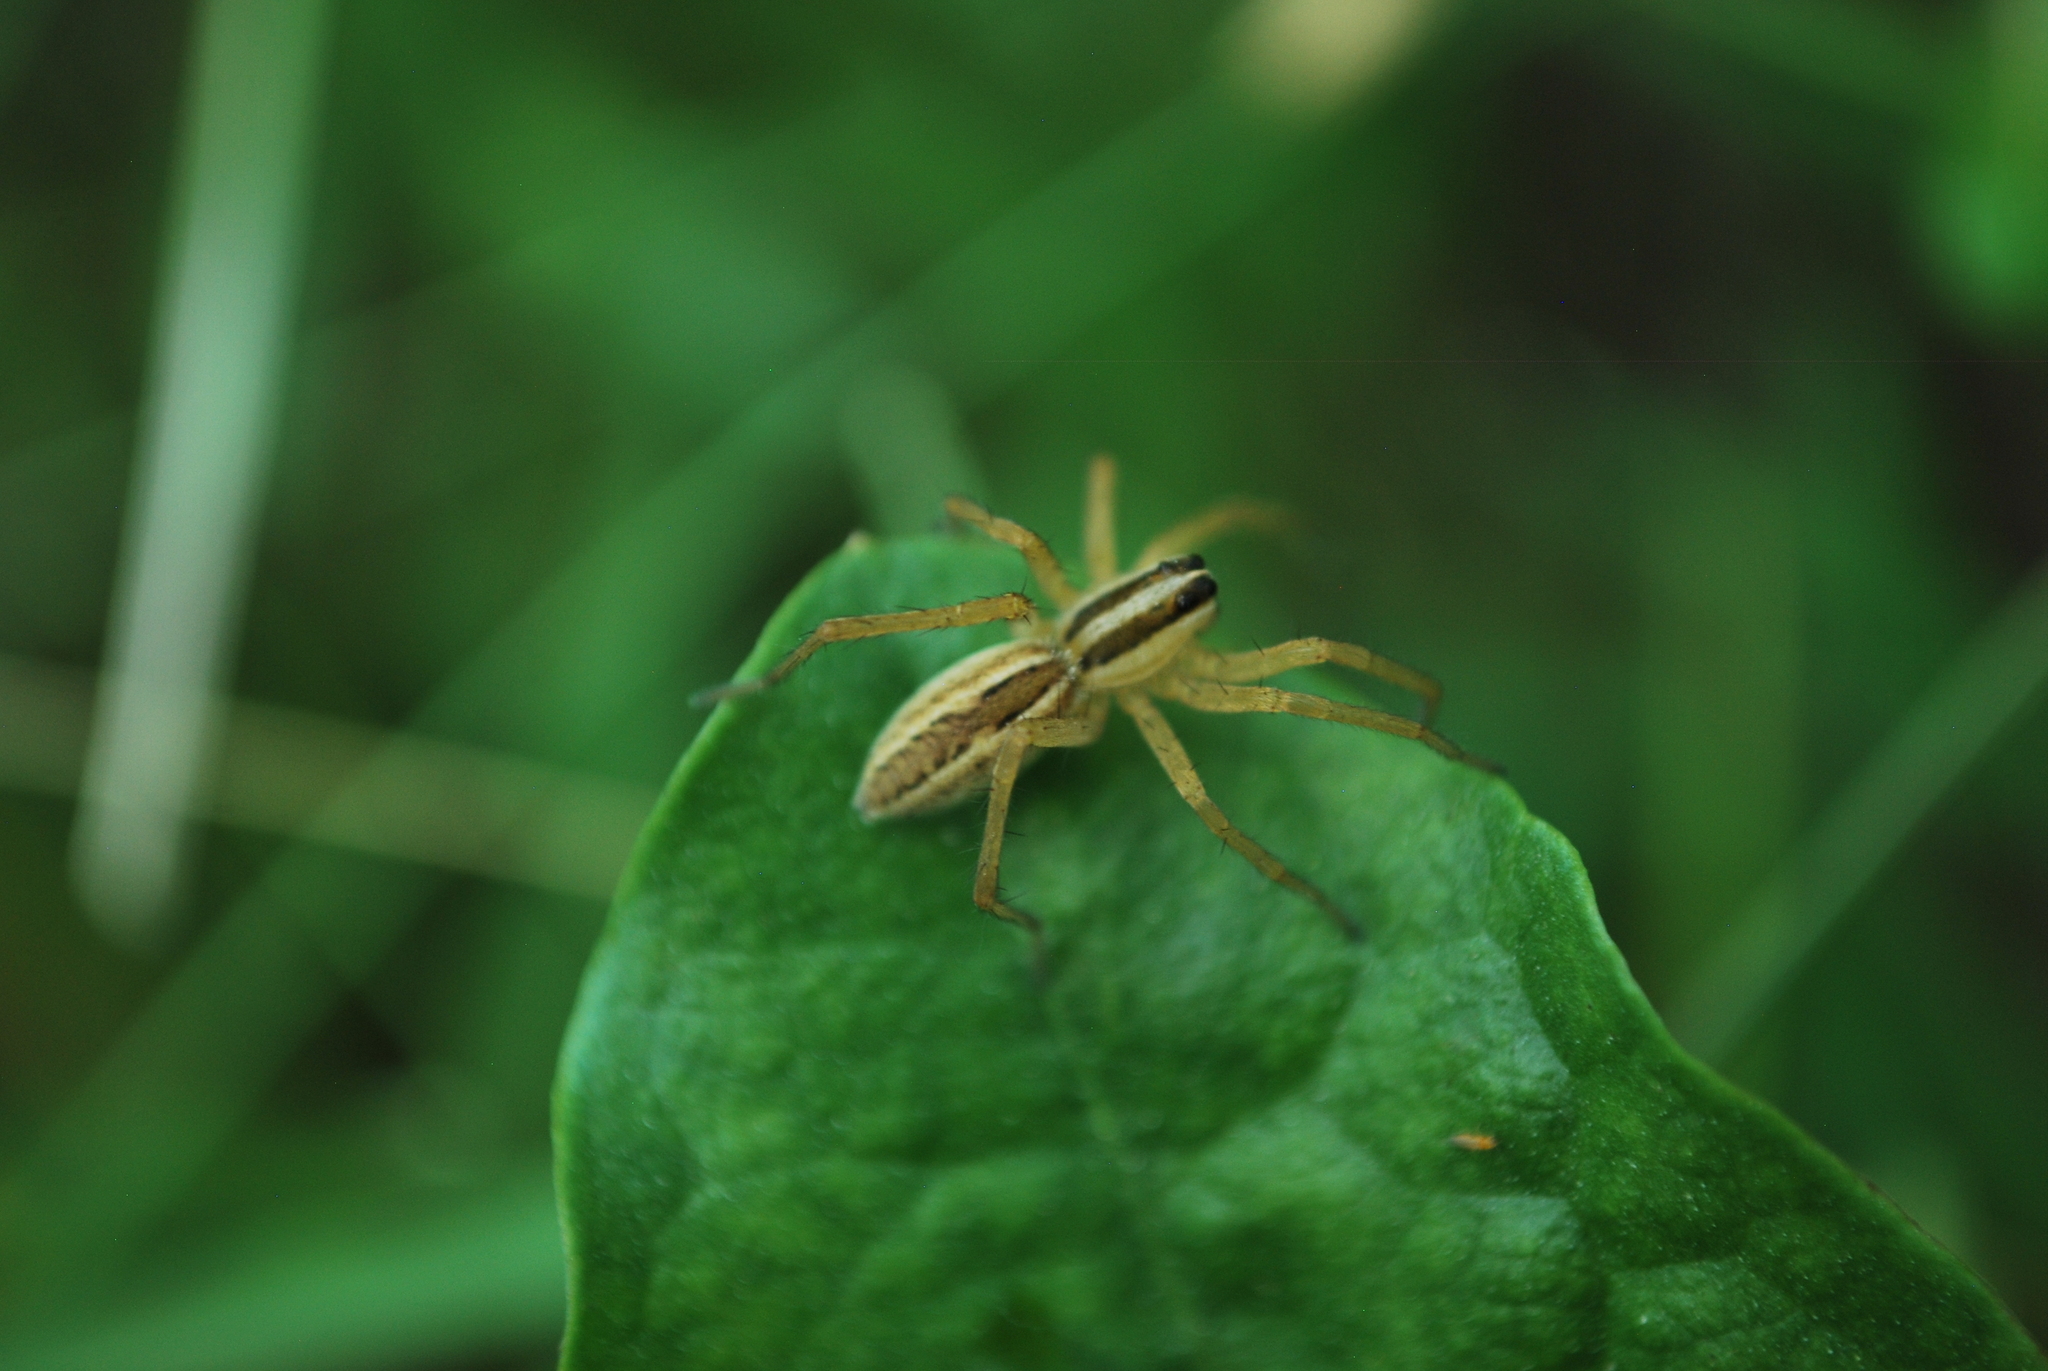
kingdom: Animalia
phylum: Arthropoda
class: Arachnida
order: Araneae
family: Lycosidae
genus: Rabidosa
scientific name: Rabidosa rabida
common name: Rabid wolf spider
